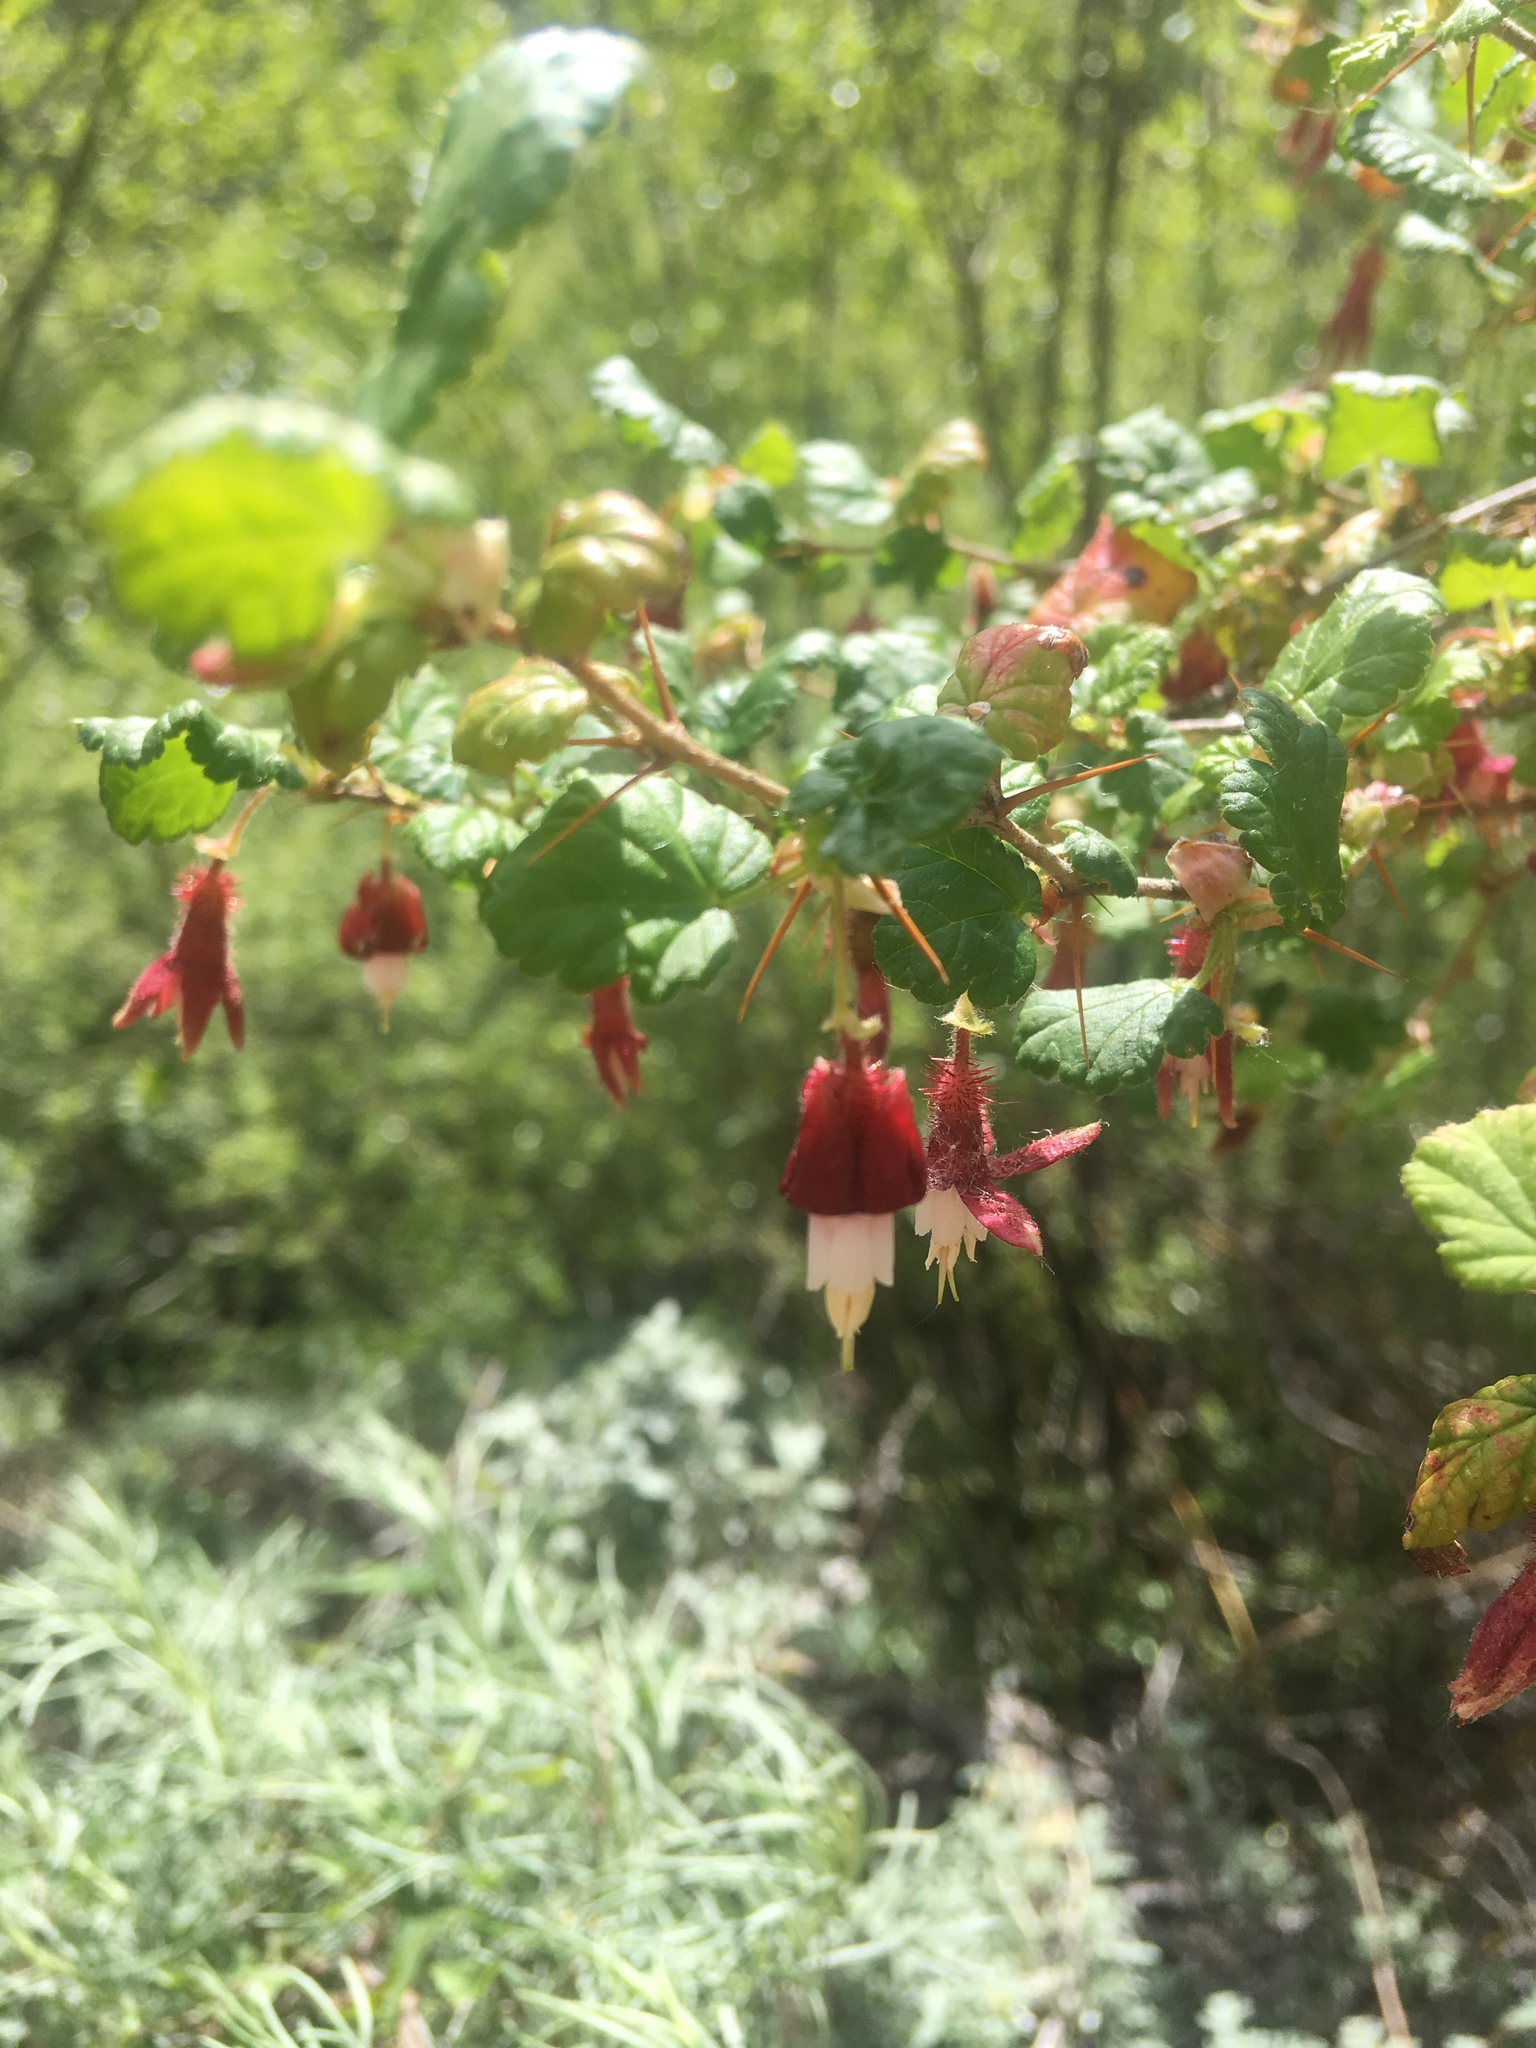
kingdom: Plantae
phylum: Tracheophyta
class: Magnoliopsida
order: Saxifragales
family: Grossulariaceae
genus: Ribes
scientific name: Ribes menziesii
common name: Canyon gooseberry
